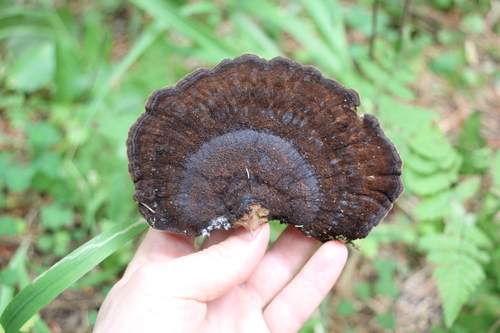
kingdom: Fungi
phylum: Basidiomycota
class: Agaricomycetes
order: Polyporales
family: Ischnodermataceae
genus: Ischnoderma
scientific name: Ischnoderma benzoinum
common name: Benzoin bracket
